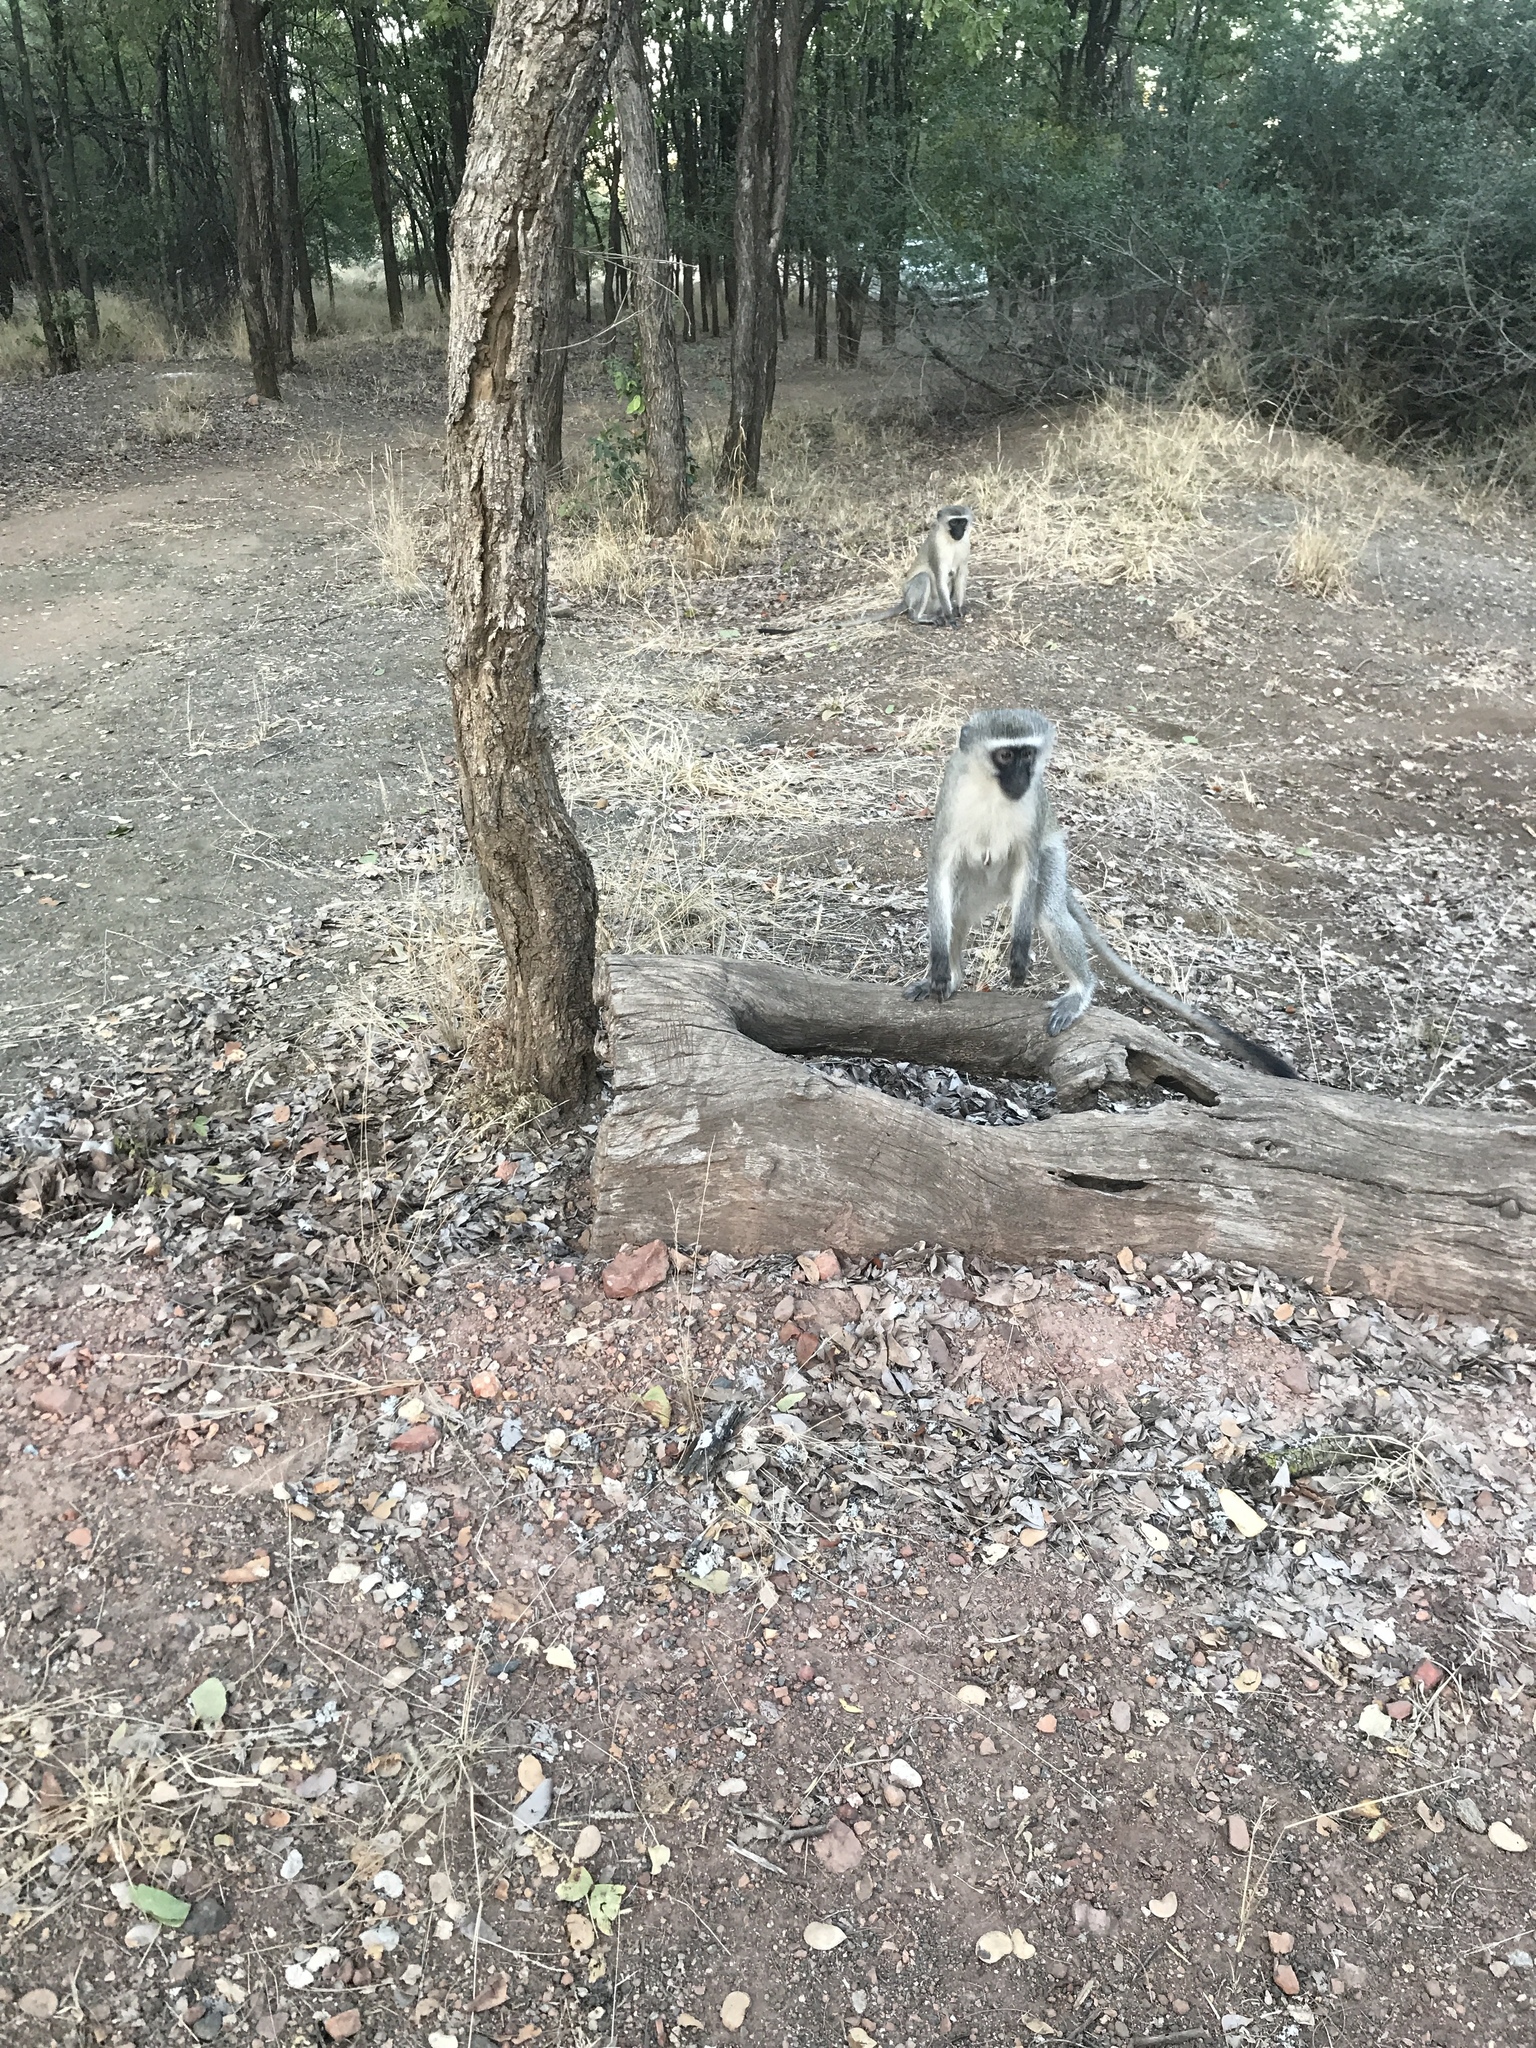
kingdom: Animalia
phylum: Chordata
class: Mammalia
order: Primates
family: Cercopithecidae
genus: Chlorocebus
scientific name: Chlorocebus pygerythrus
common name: Vervet monkey
